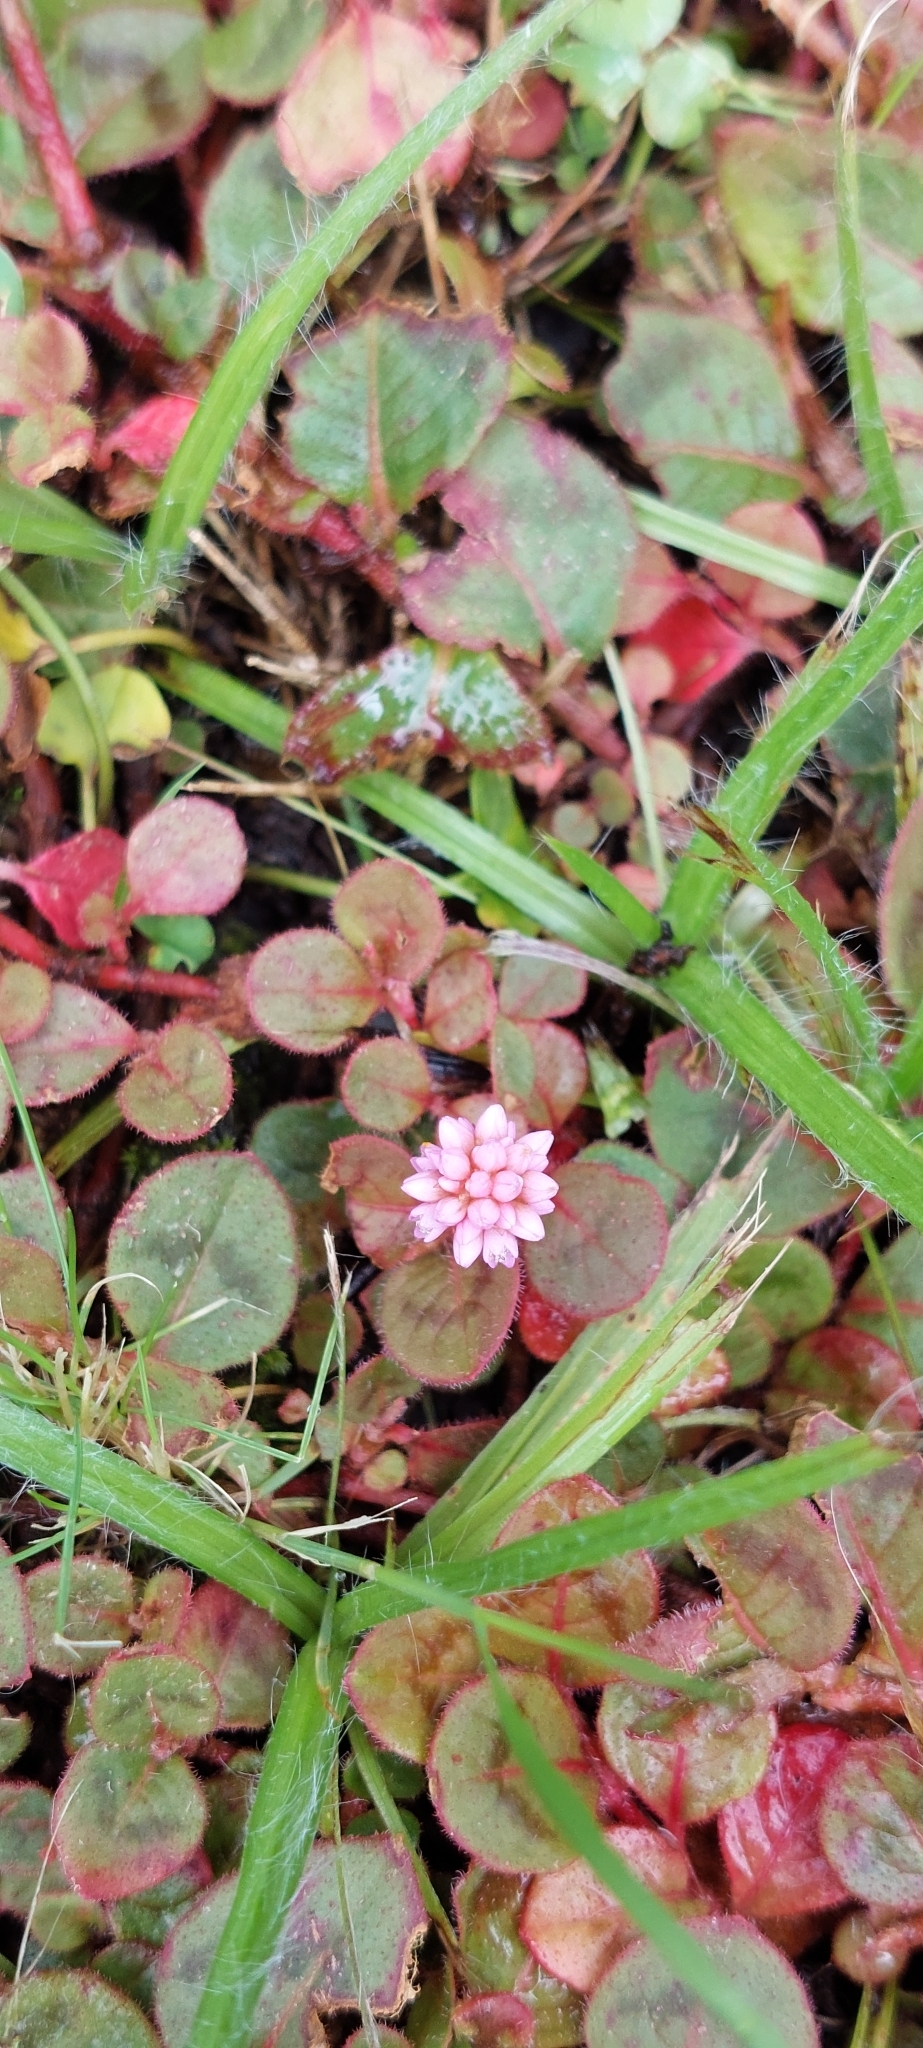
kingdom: Plantae
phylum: Tracheophyta
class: Magnoliopsida
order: Caryophyllales
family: Polygonaceae
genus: Persicaria
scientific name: Persicaria capitata
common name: Pinkhead smartweed
